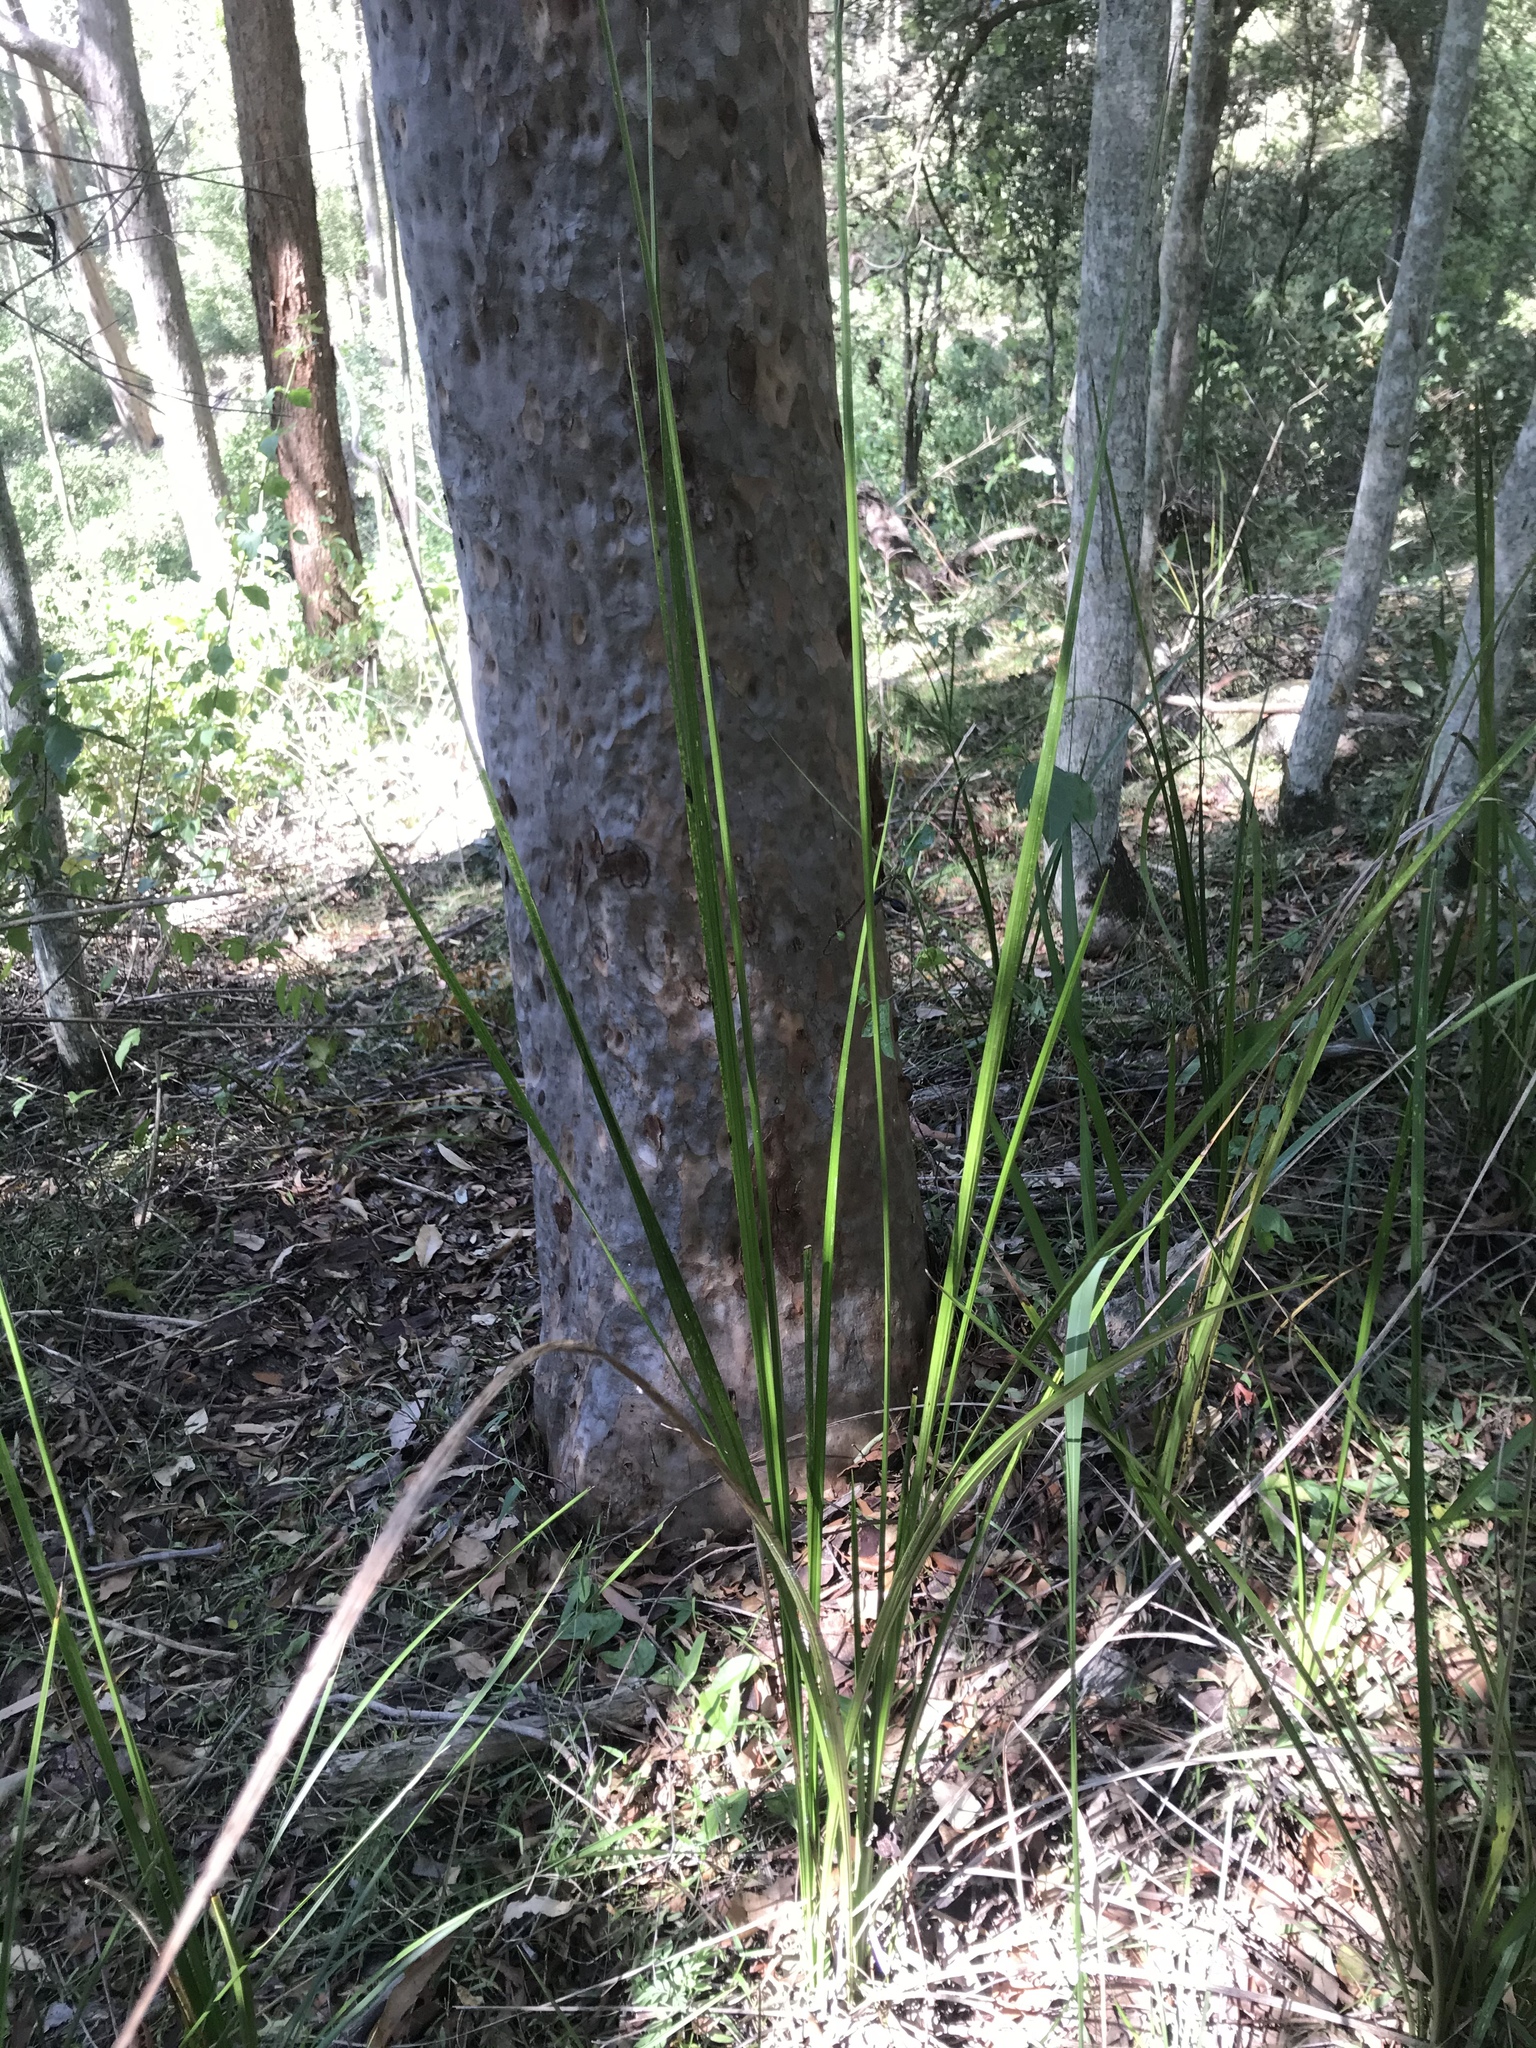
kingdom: Plantae
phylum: Tracheophyta
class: Liliopsida
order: Alismatales
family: Araceae
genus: Gymnostachys
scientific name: Gymnostachys anceps
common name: Settler's-flax
